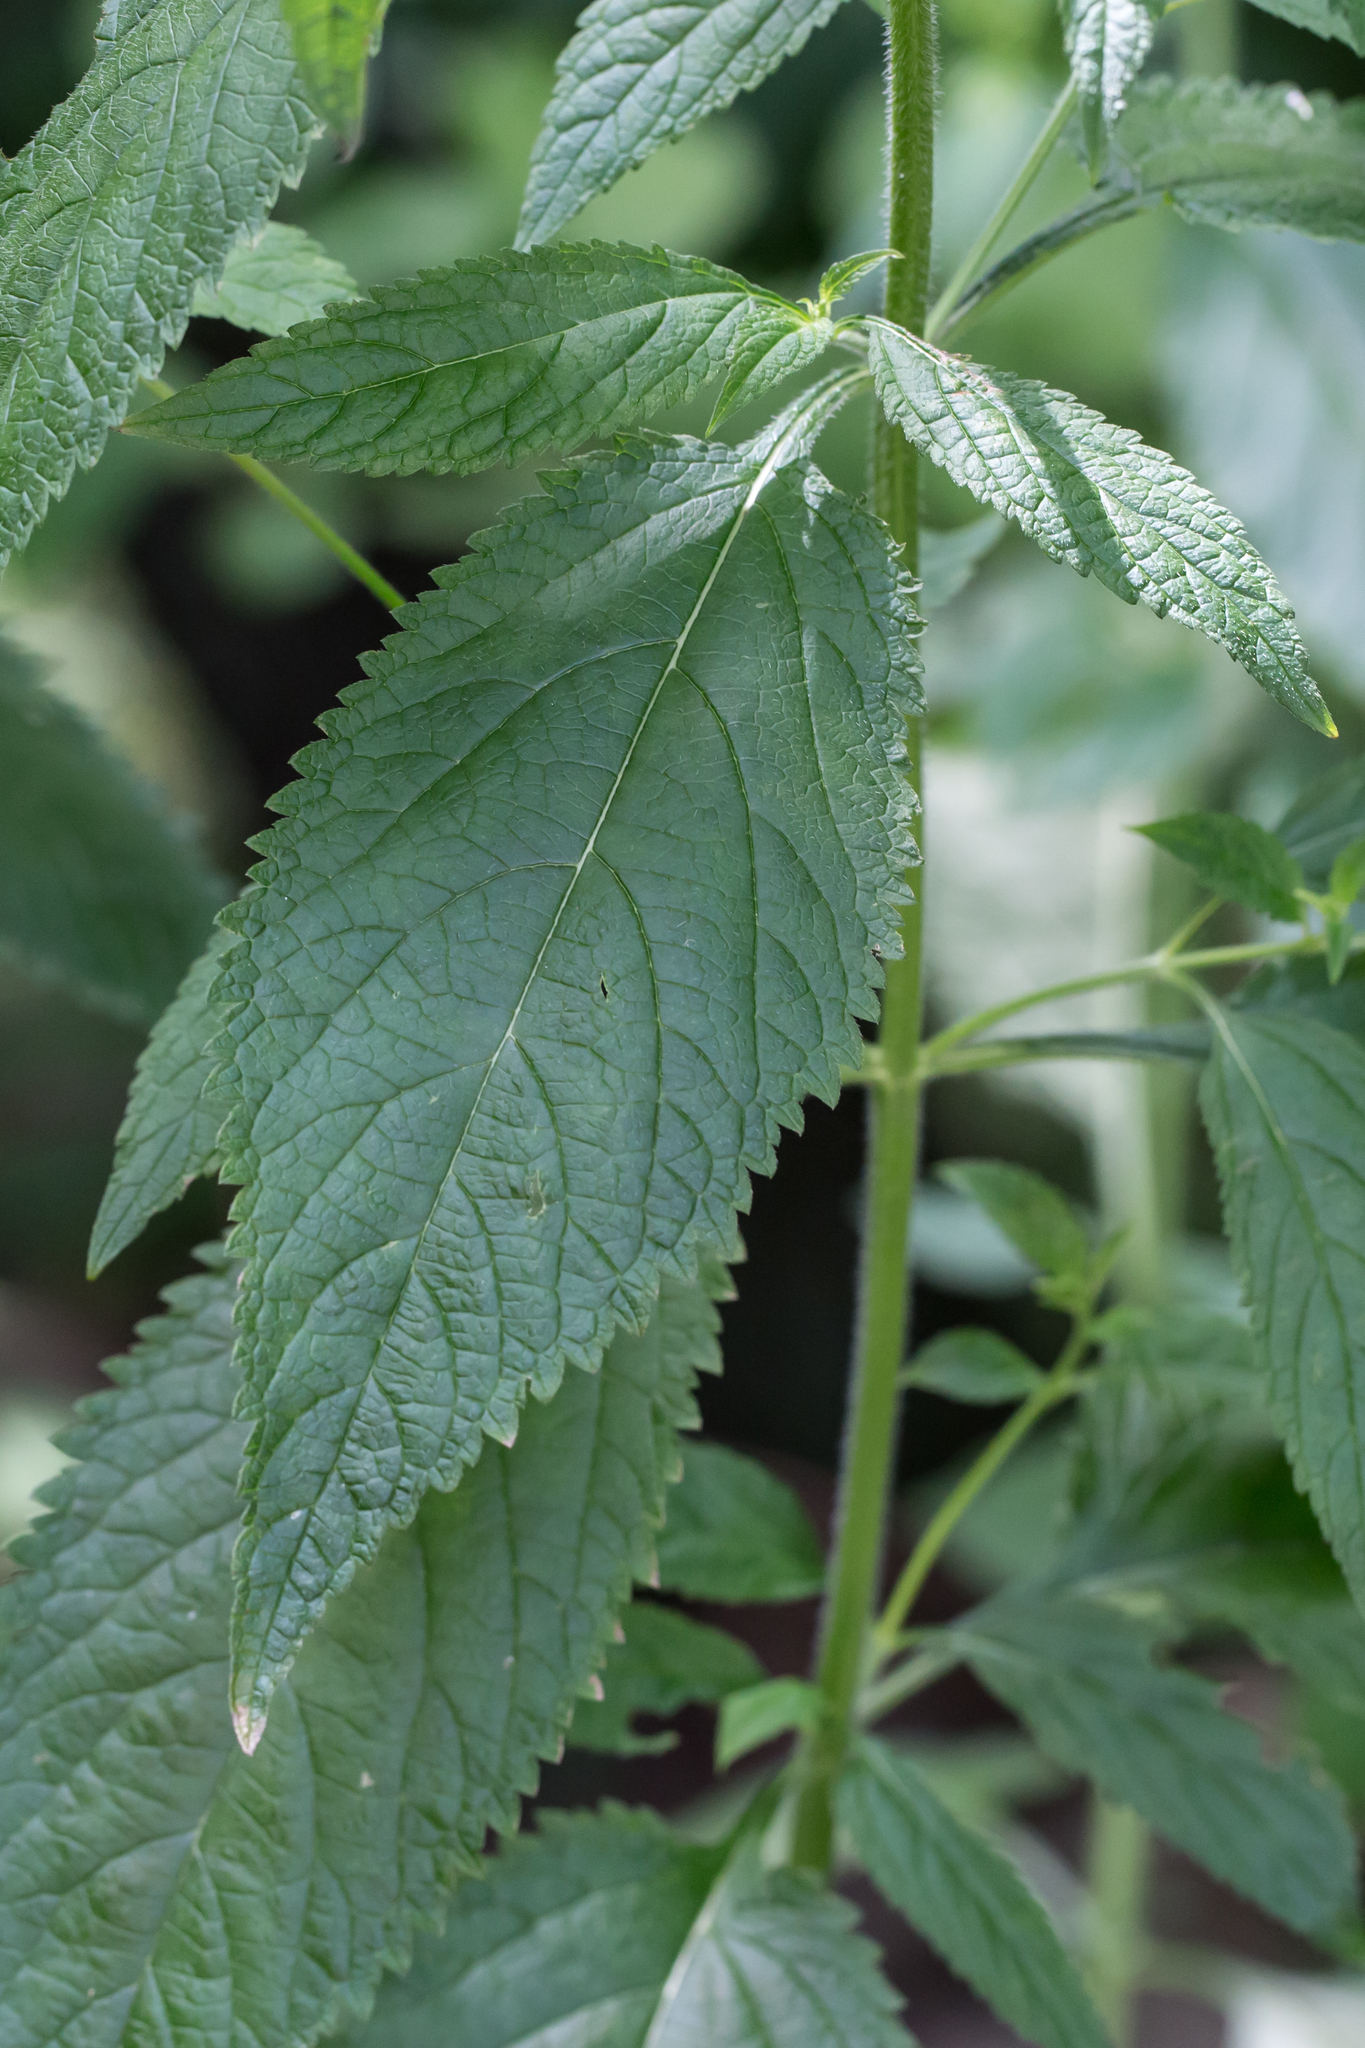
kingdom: Plantae
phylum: Tracheophyta
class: Magnoliopsida
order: Lamiales
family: Verbenaceae
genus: Verbena
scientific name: Verbena urticifolia
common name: Nettle-leaved vervain
